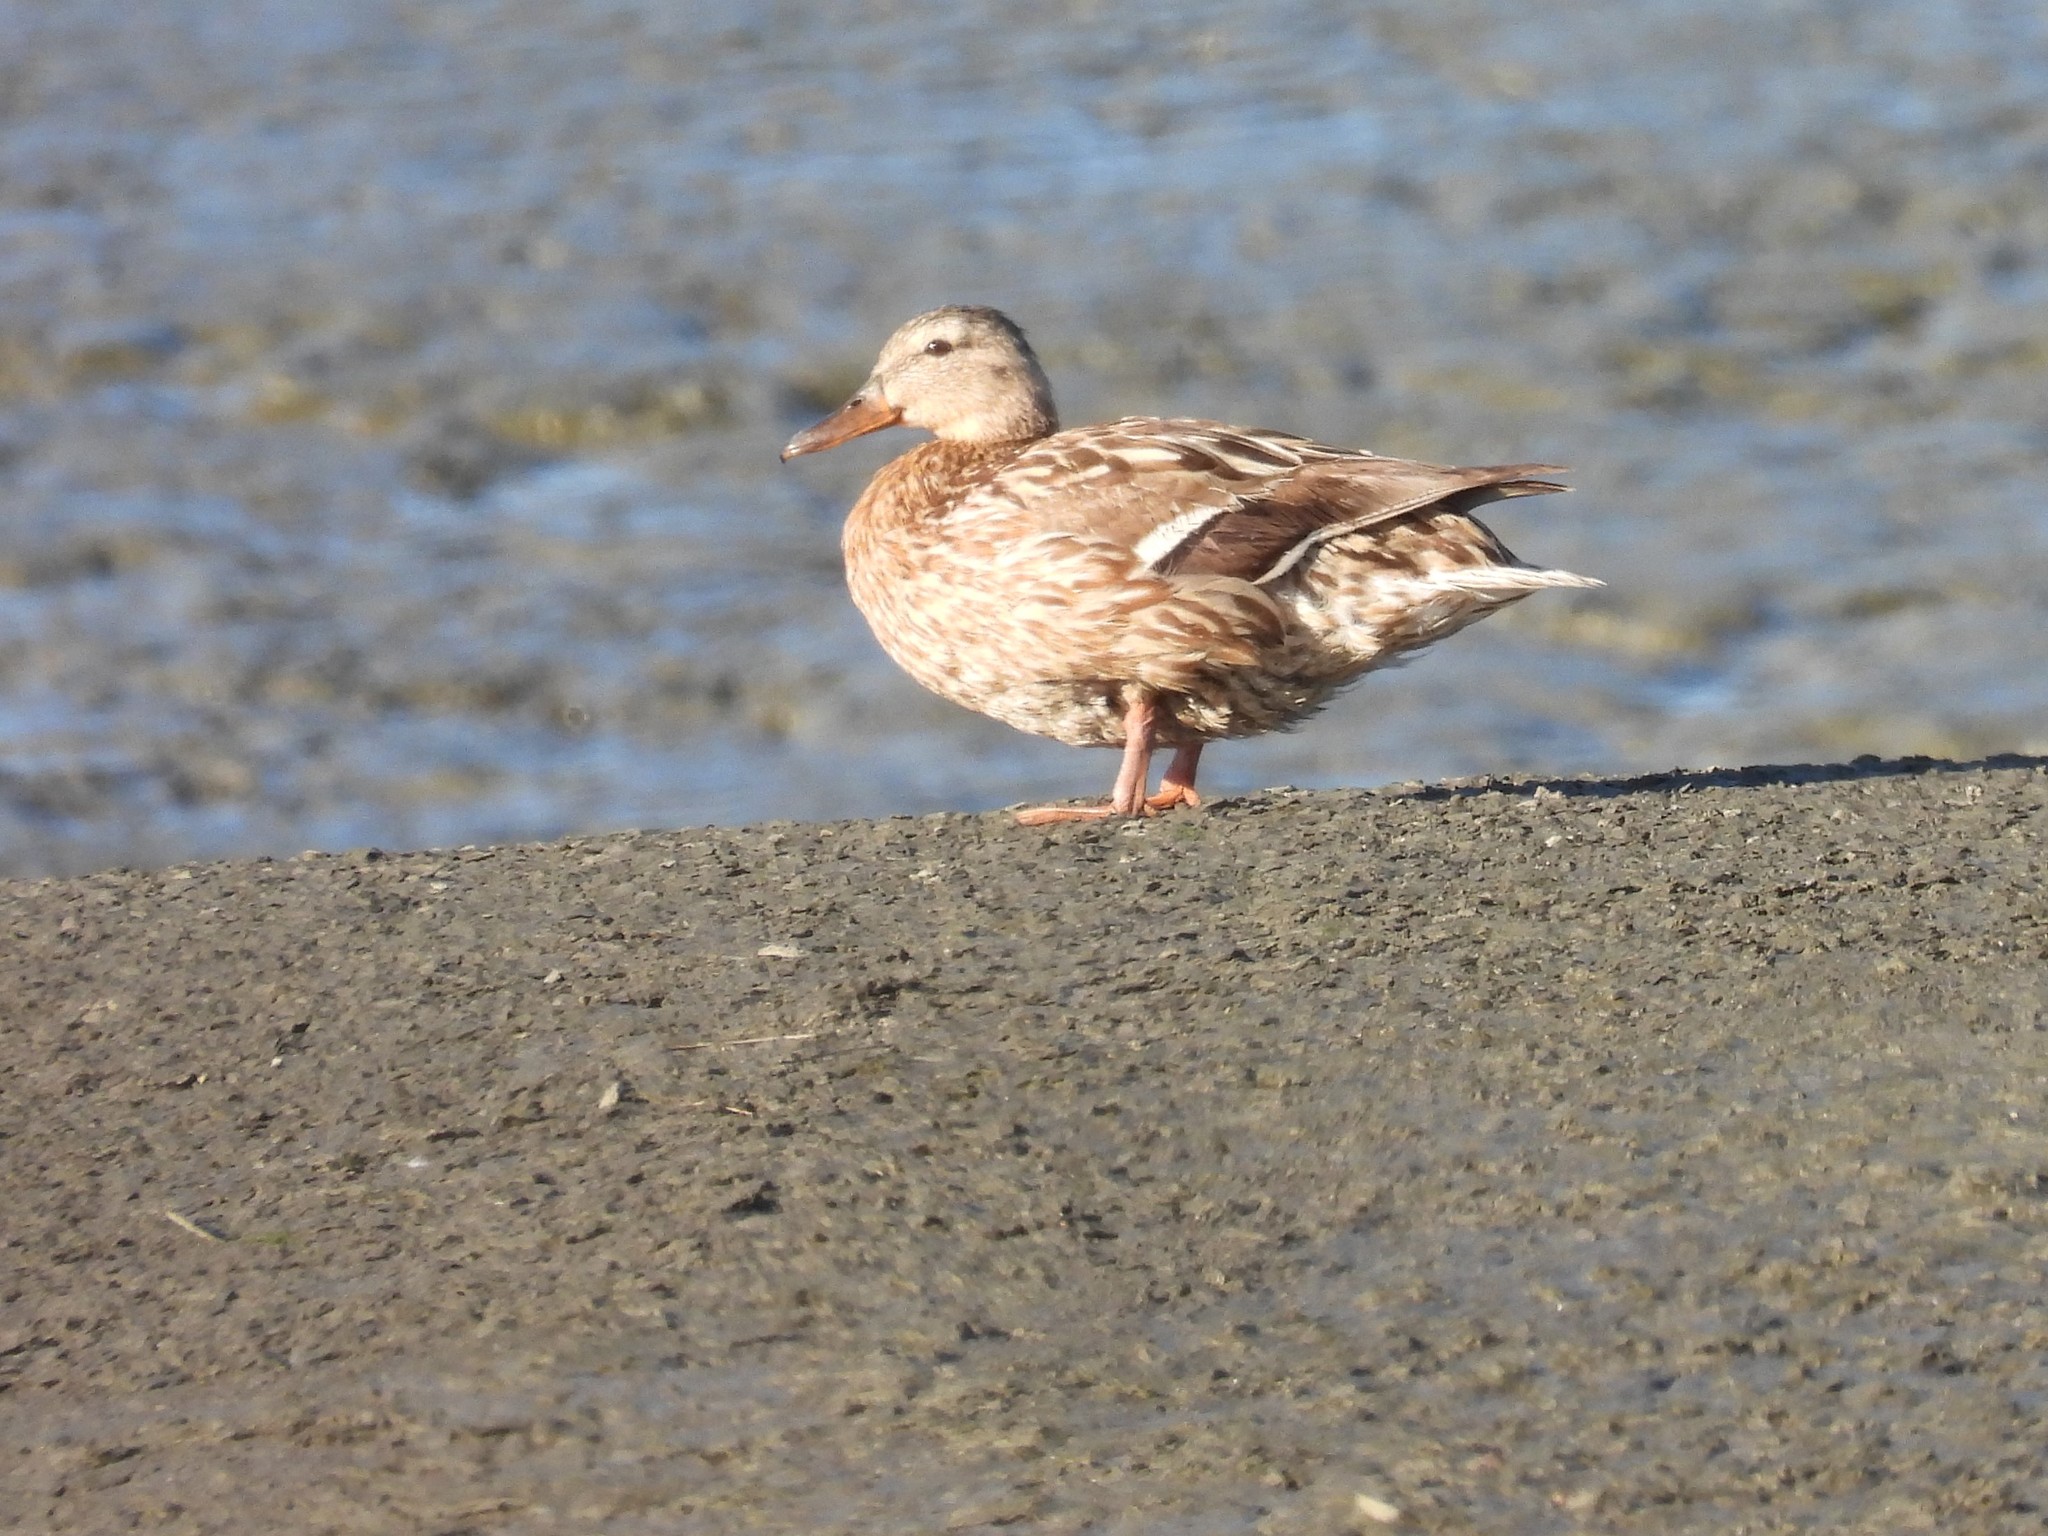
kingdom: Animalia
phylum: Chordata
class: Aves
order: Anseriformes
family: Anatidae
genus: Anas
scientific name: Anas platyrhynchos
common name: Mallard
